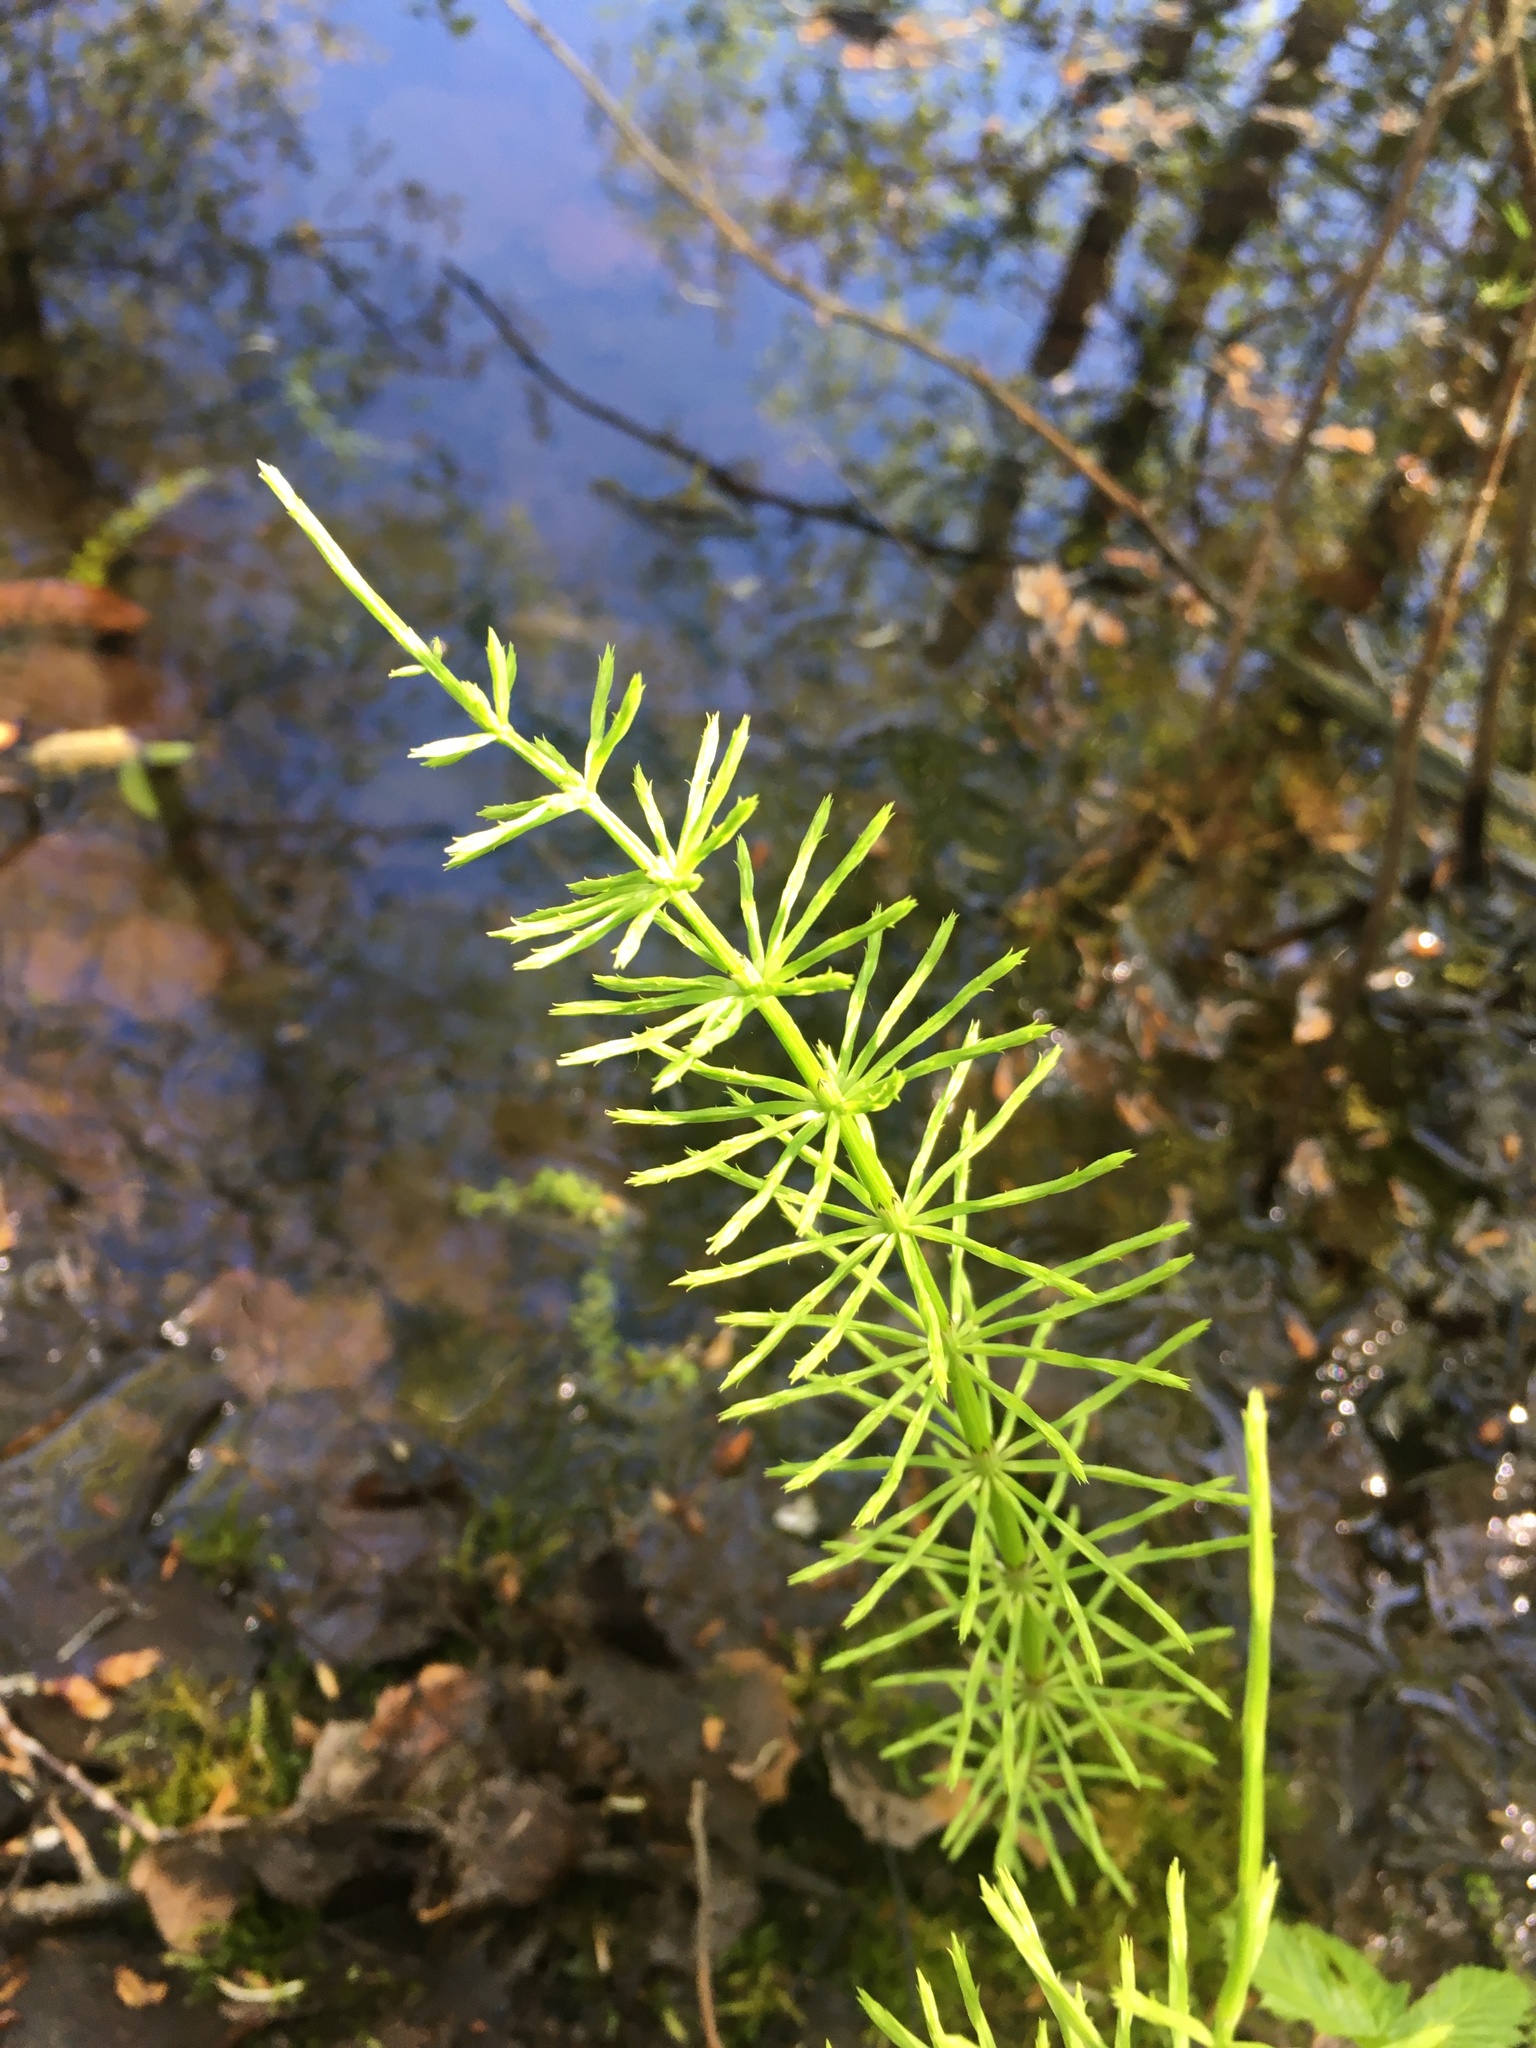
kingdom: Plantae
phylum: Tracheophyta
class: Polypodiopsida
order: Equisetales
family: Equisetaceae
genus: Equisetum
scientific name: Equisetum arvense
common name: Field horsetail
